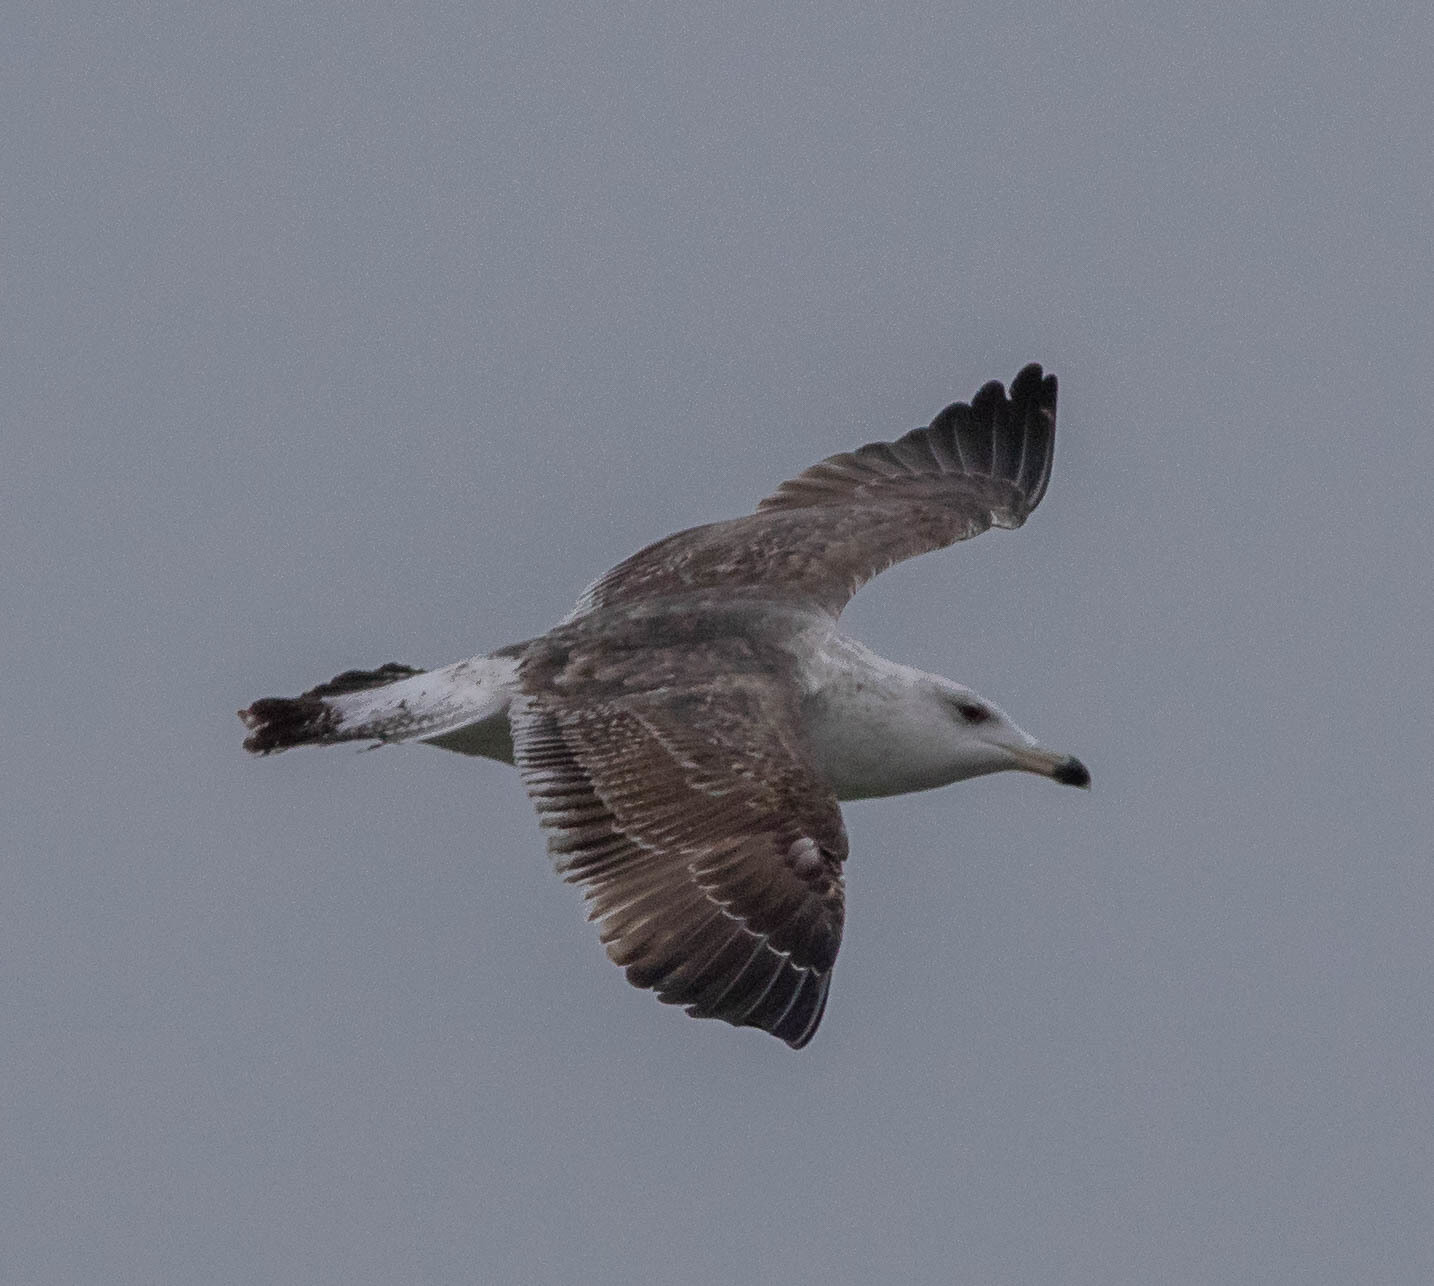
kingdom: Animalia
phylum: Chordata
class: Aves
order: Charadriiformes
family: Laridae
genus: Larus
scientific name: Larus marinus
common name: Great black-backed gull
